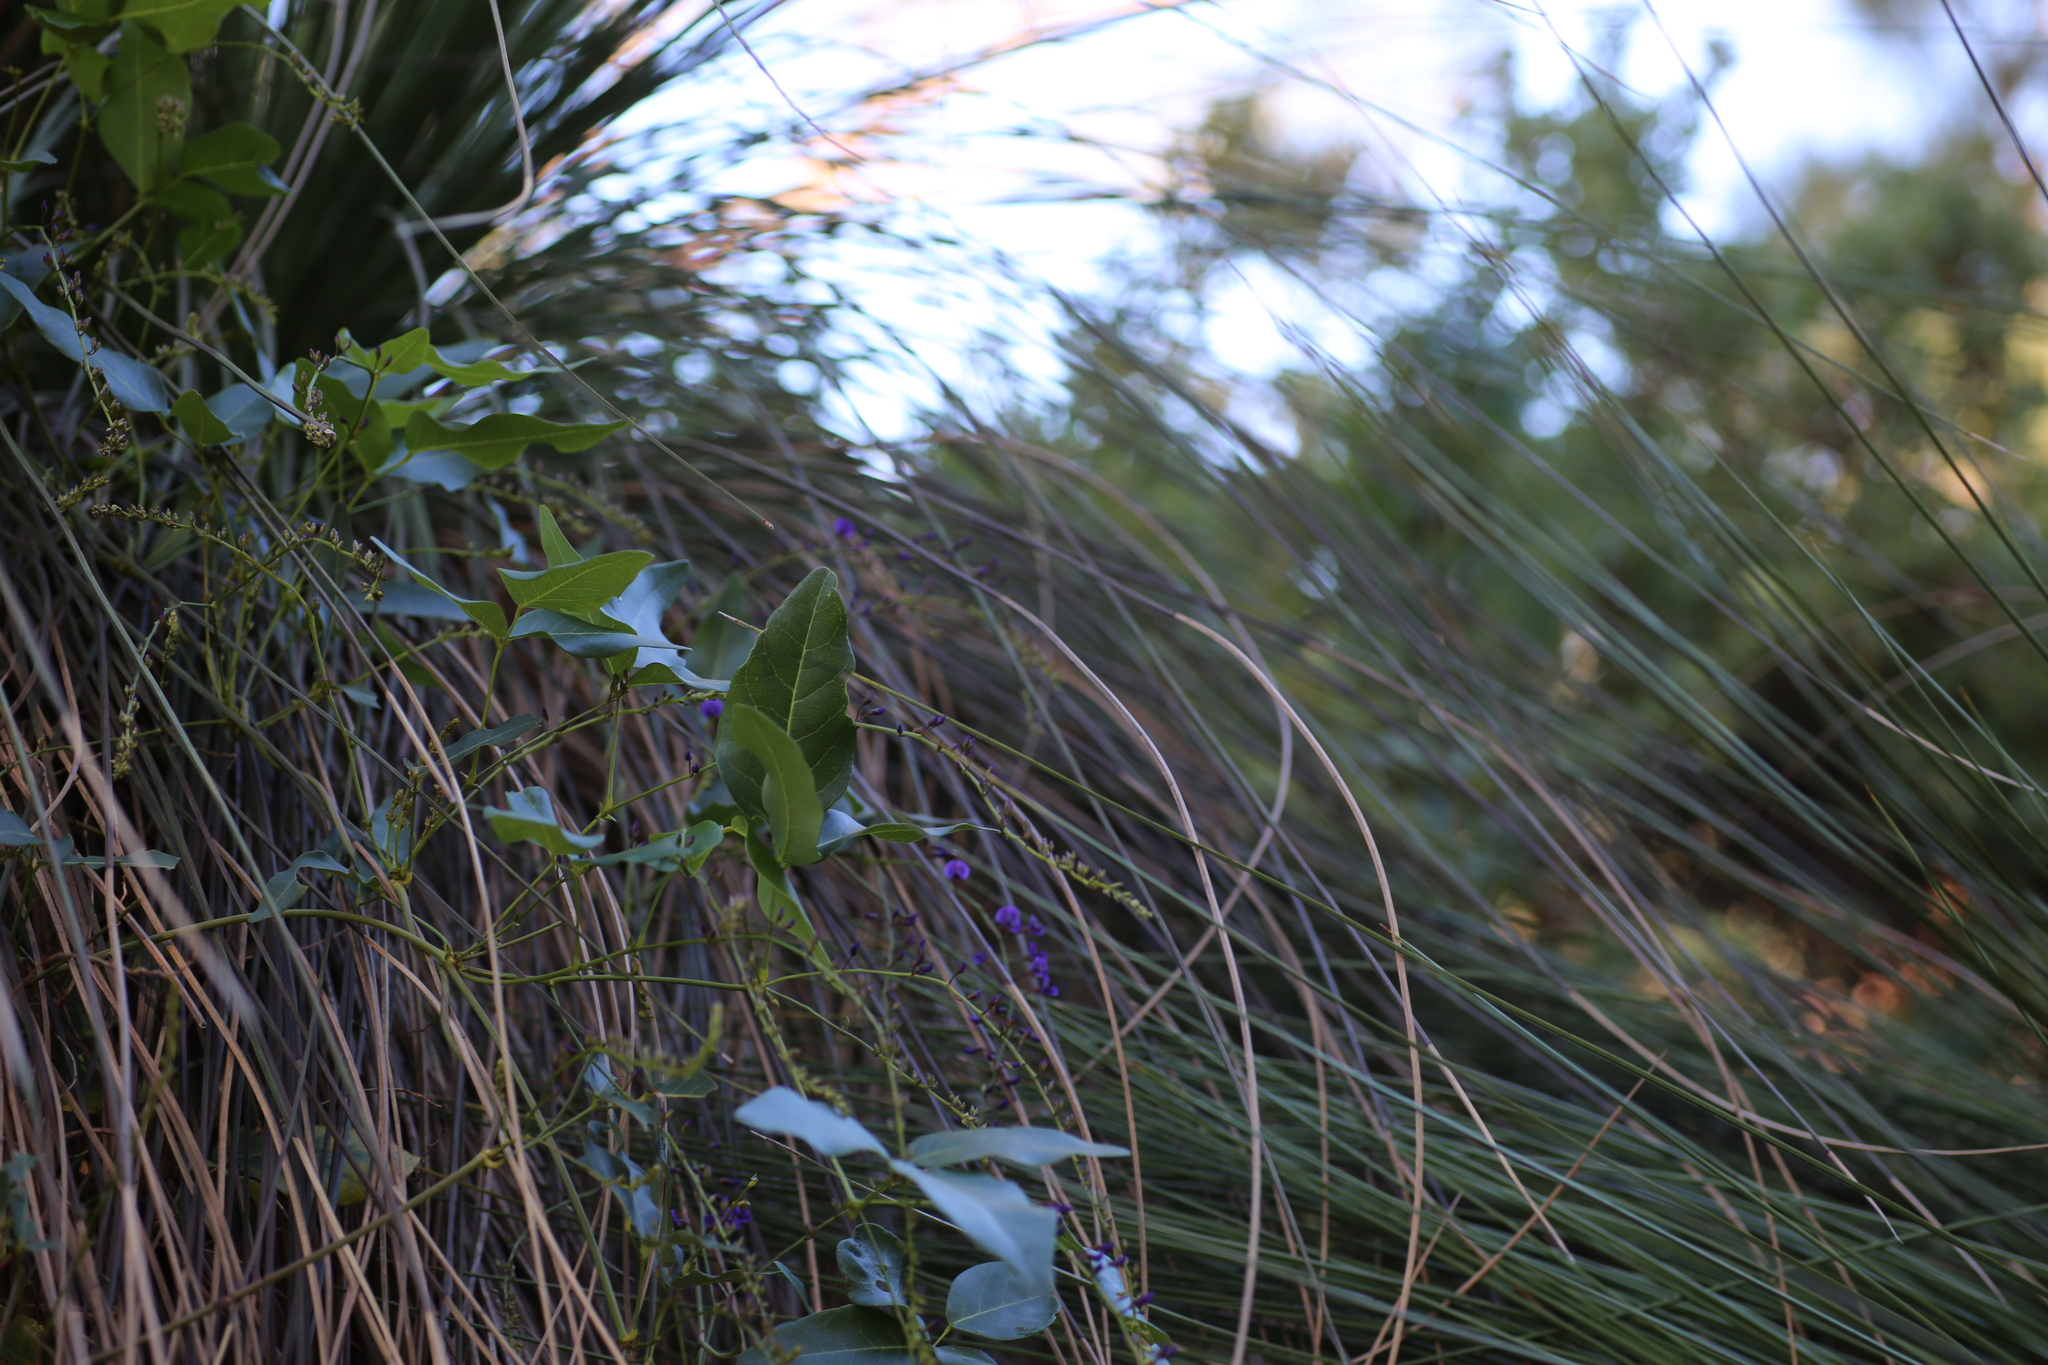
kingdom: Plantae
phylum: Tracheophyta
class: Magnoliopsida
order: Fabales
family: Fabaceae
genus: Hardenbergia
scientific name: Hardenbergia comptoniana
